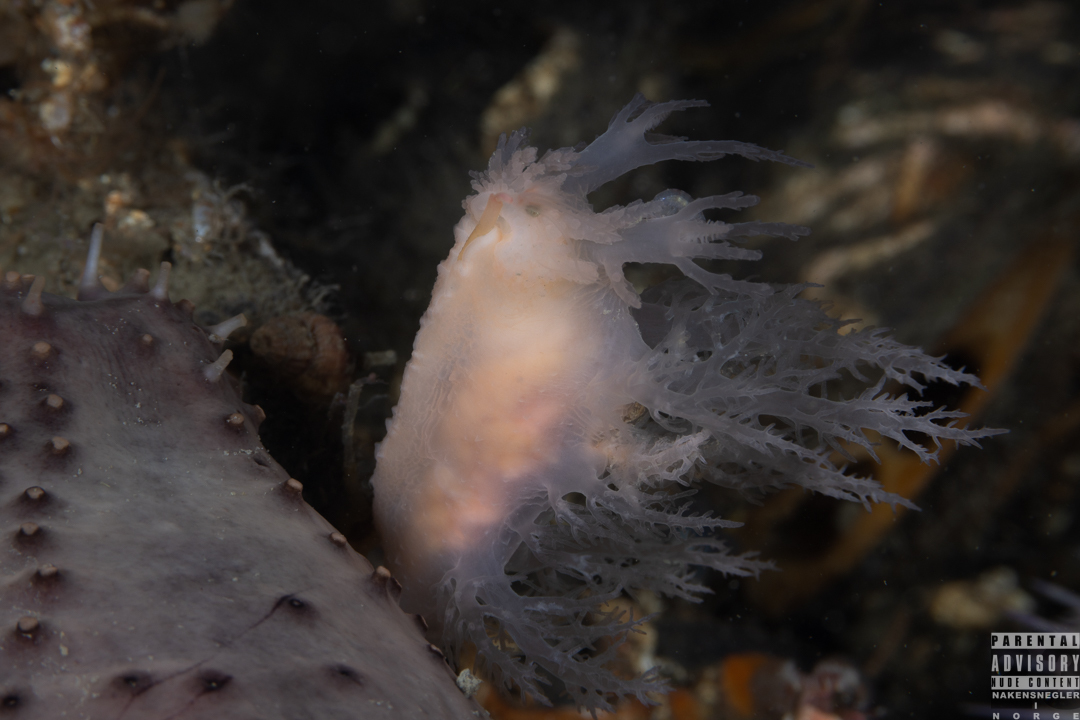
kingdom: Animalia
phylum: Mollusca
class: Gastropoda
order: Nudibranchia
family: Dendronotidae
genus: Dendronotus
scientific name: Dendronotus europaeus
